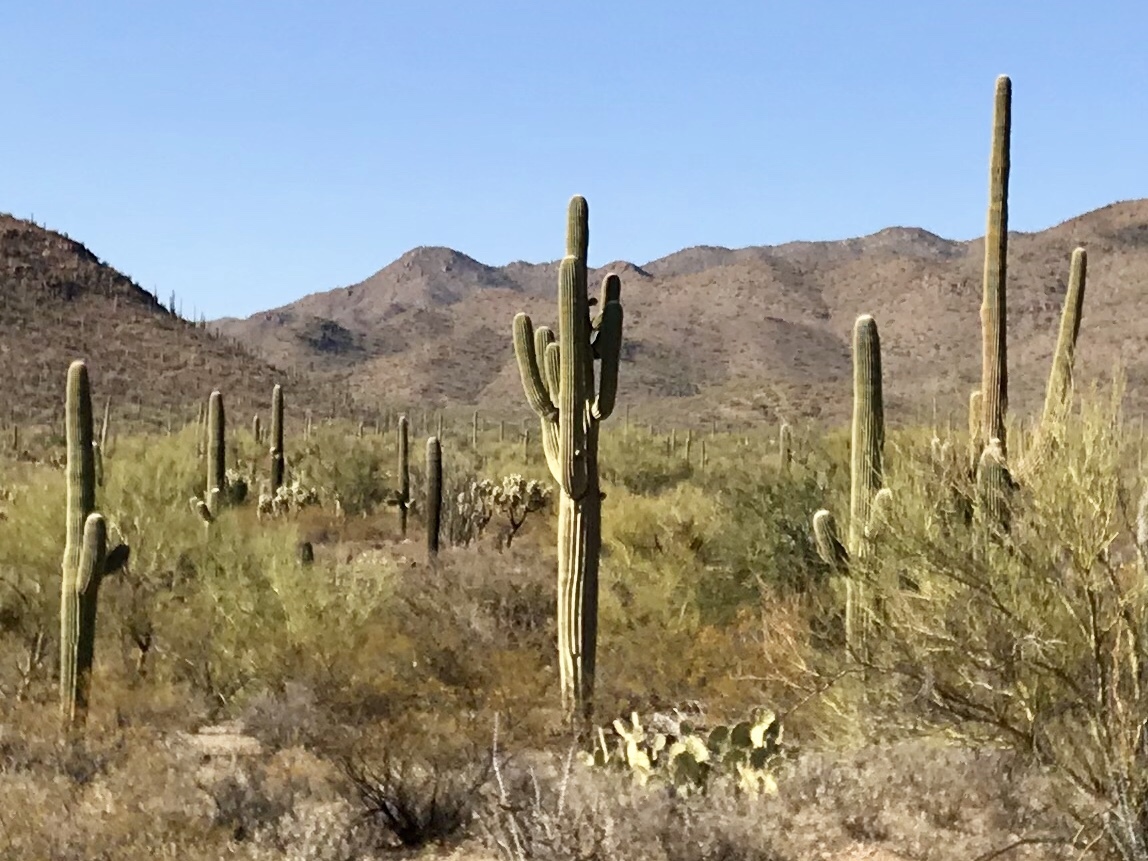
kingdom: Plantae
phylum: Tracheophyta
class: Magnoliopsida
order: Caryophyllales
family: Cactaceae
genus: Carnegiea
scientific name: Carnegiea gigantea
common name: Saguaro
